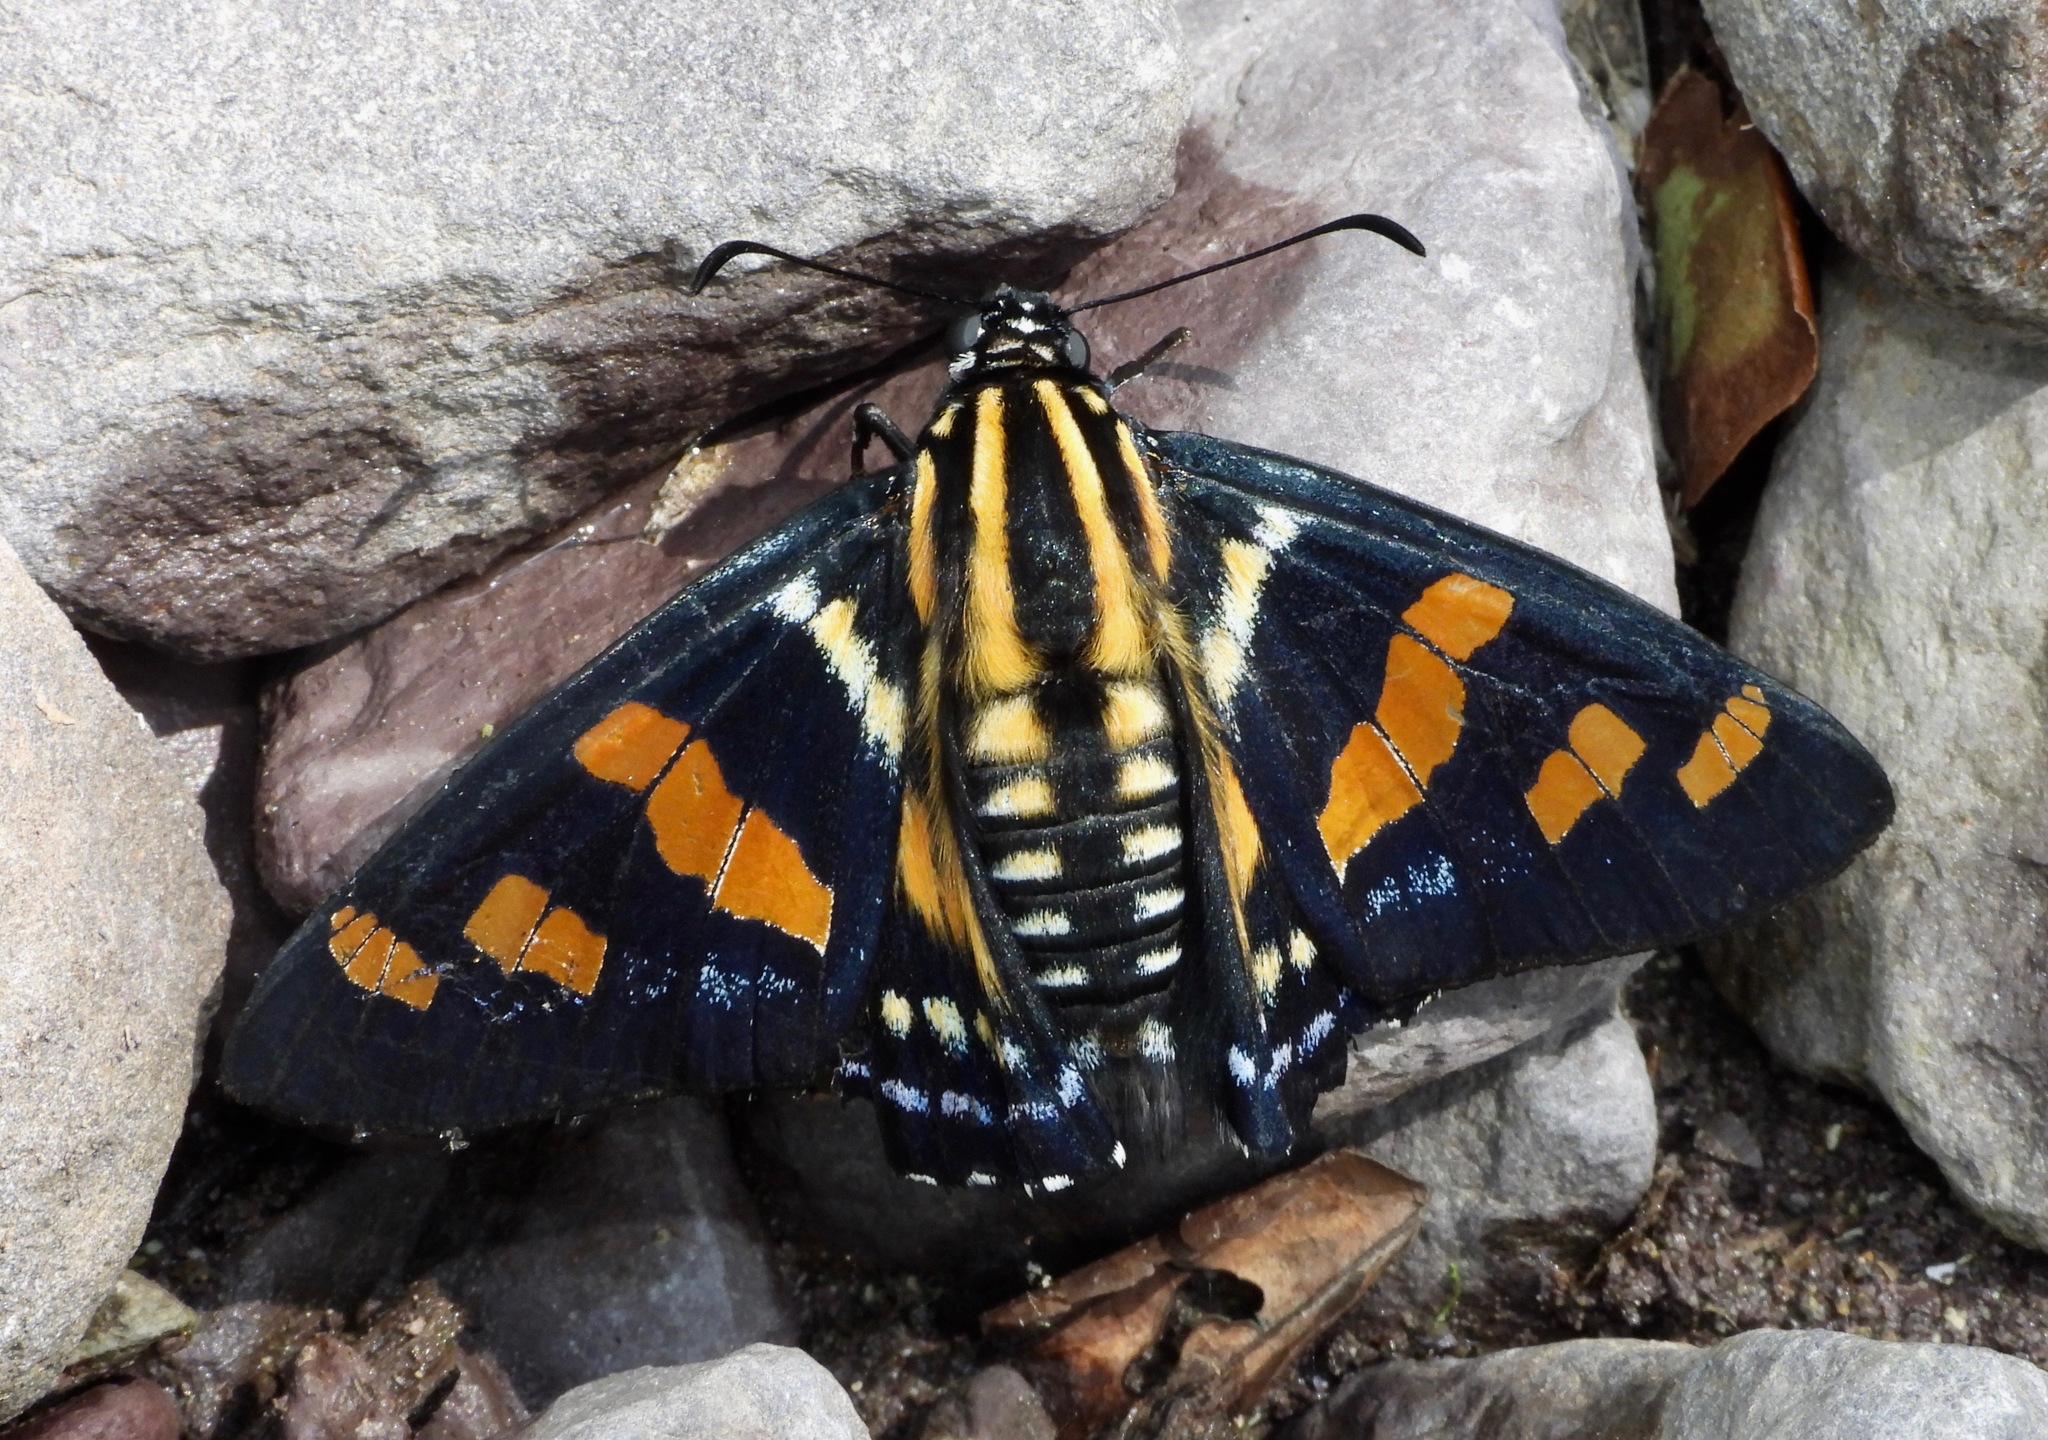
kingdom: Animalia
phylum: Arthropoda
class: Insecta
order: Lepidoptera
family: Hesperiidae
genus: Mimardaris
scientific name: Mimardaris
